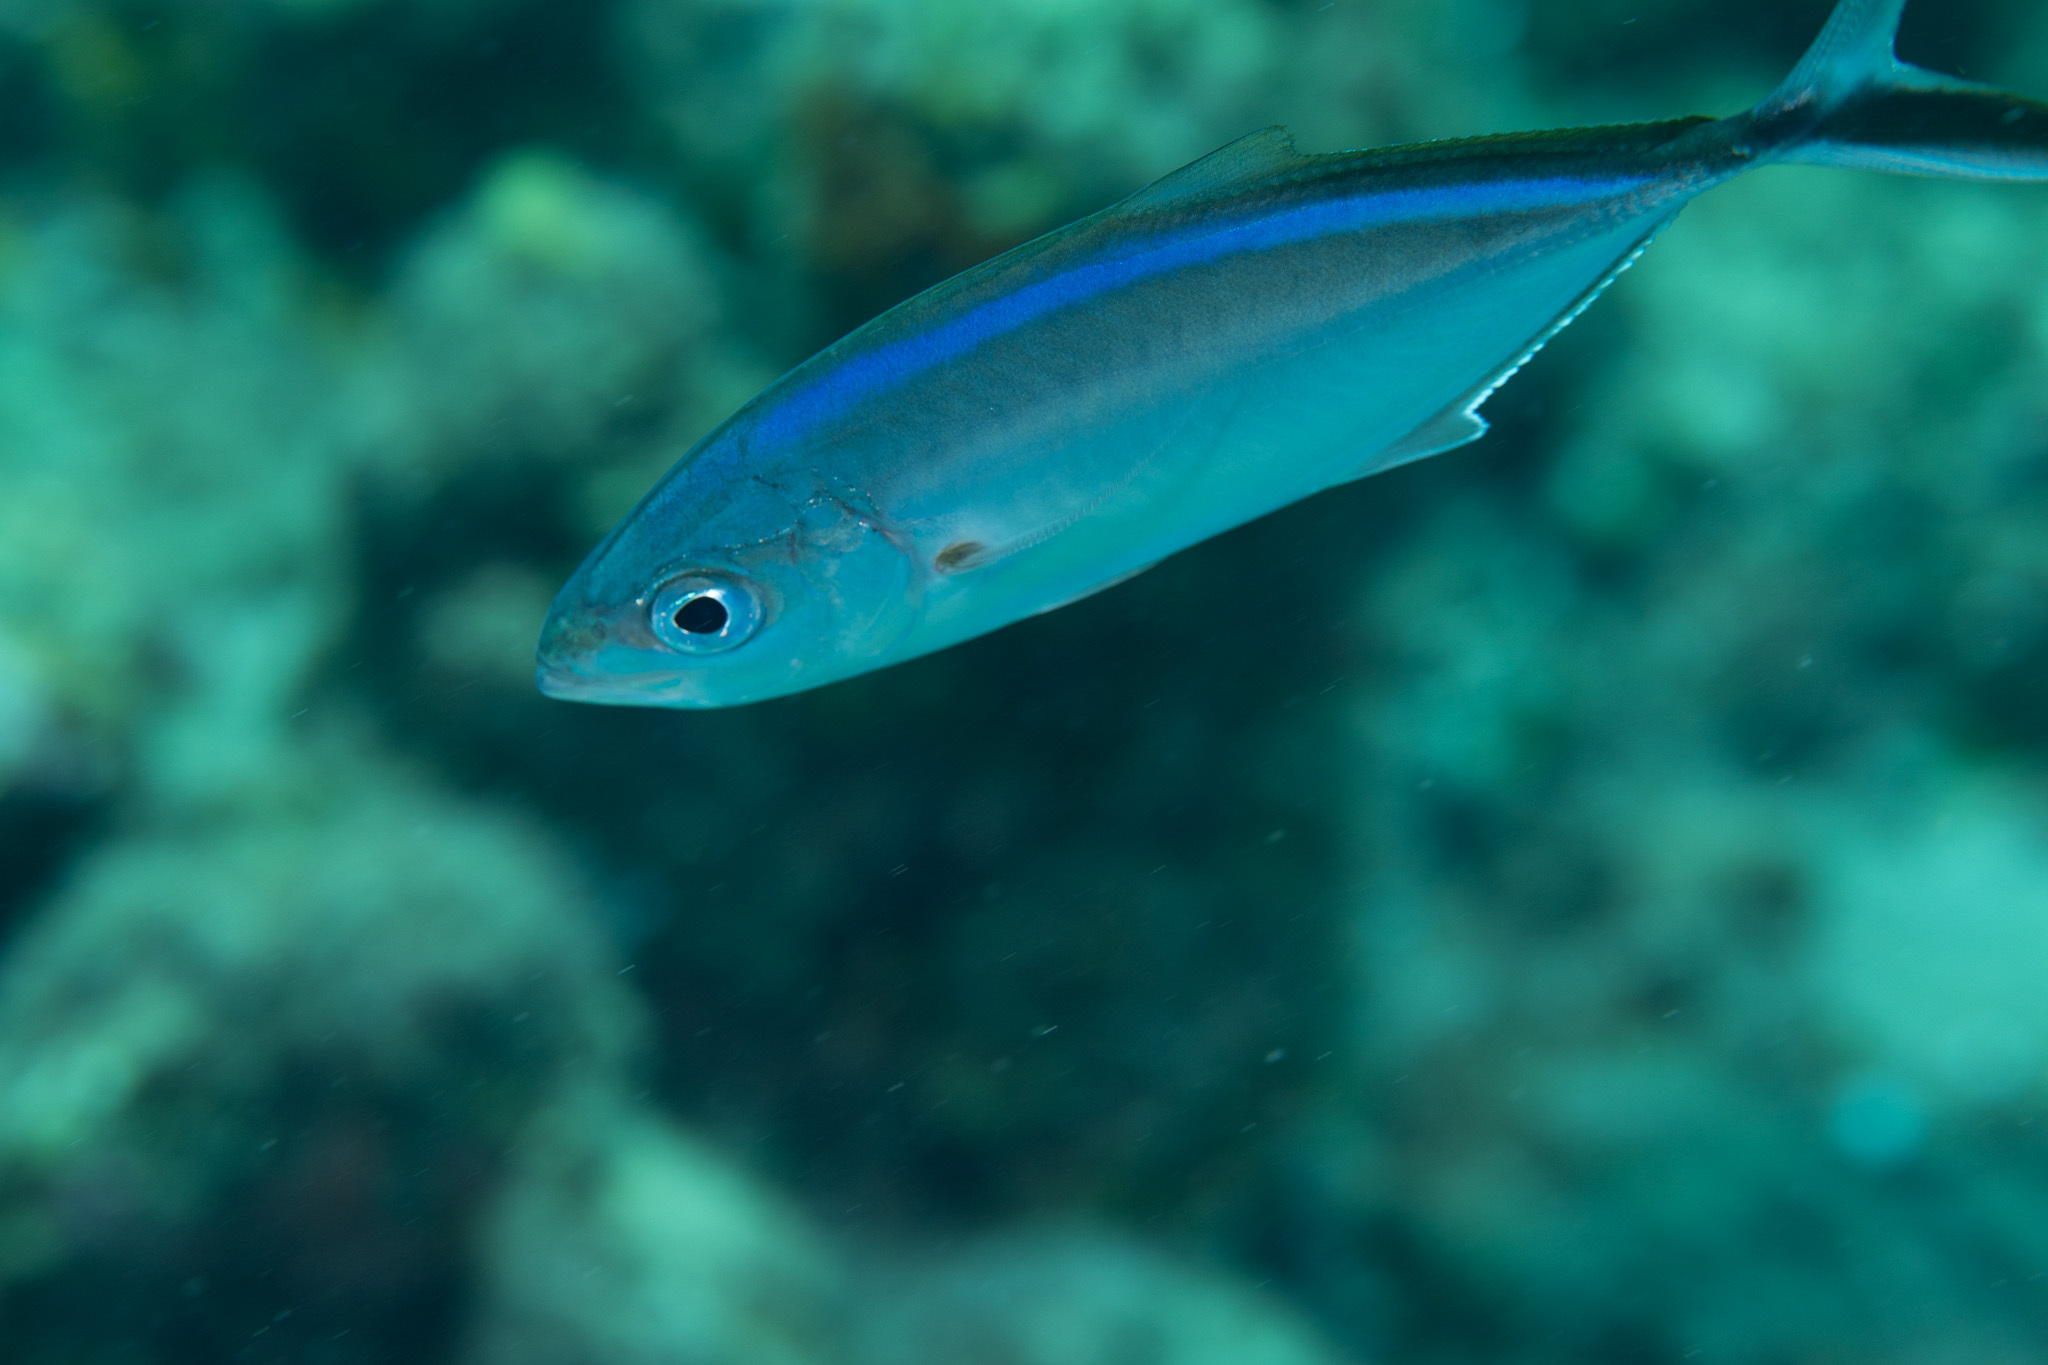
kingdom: Animalia
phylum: Chordata
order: Perciformes
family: Carangidae
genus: Caranx
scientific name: Caranx ruber
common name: Bar jack
